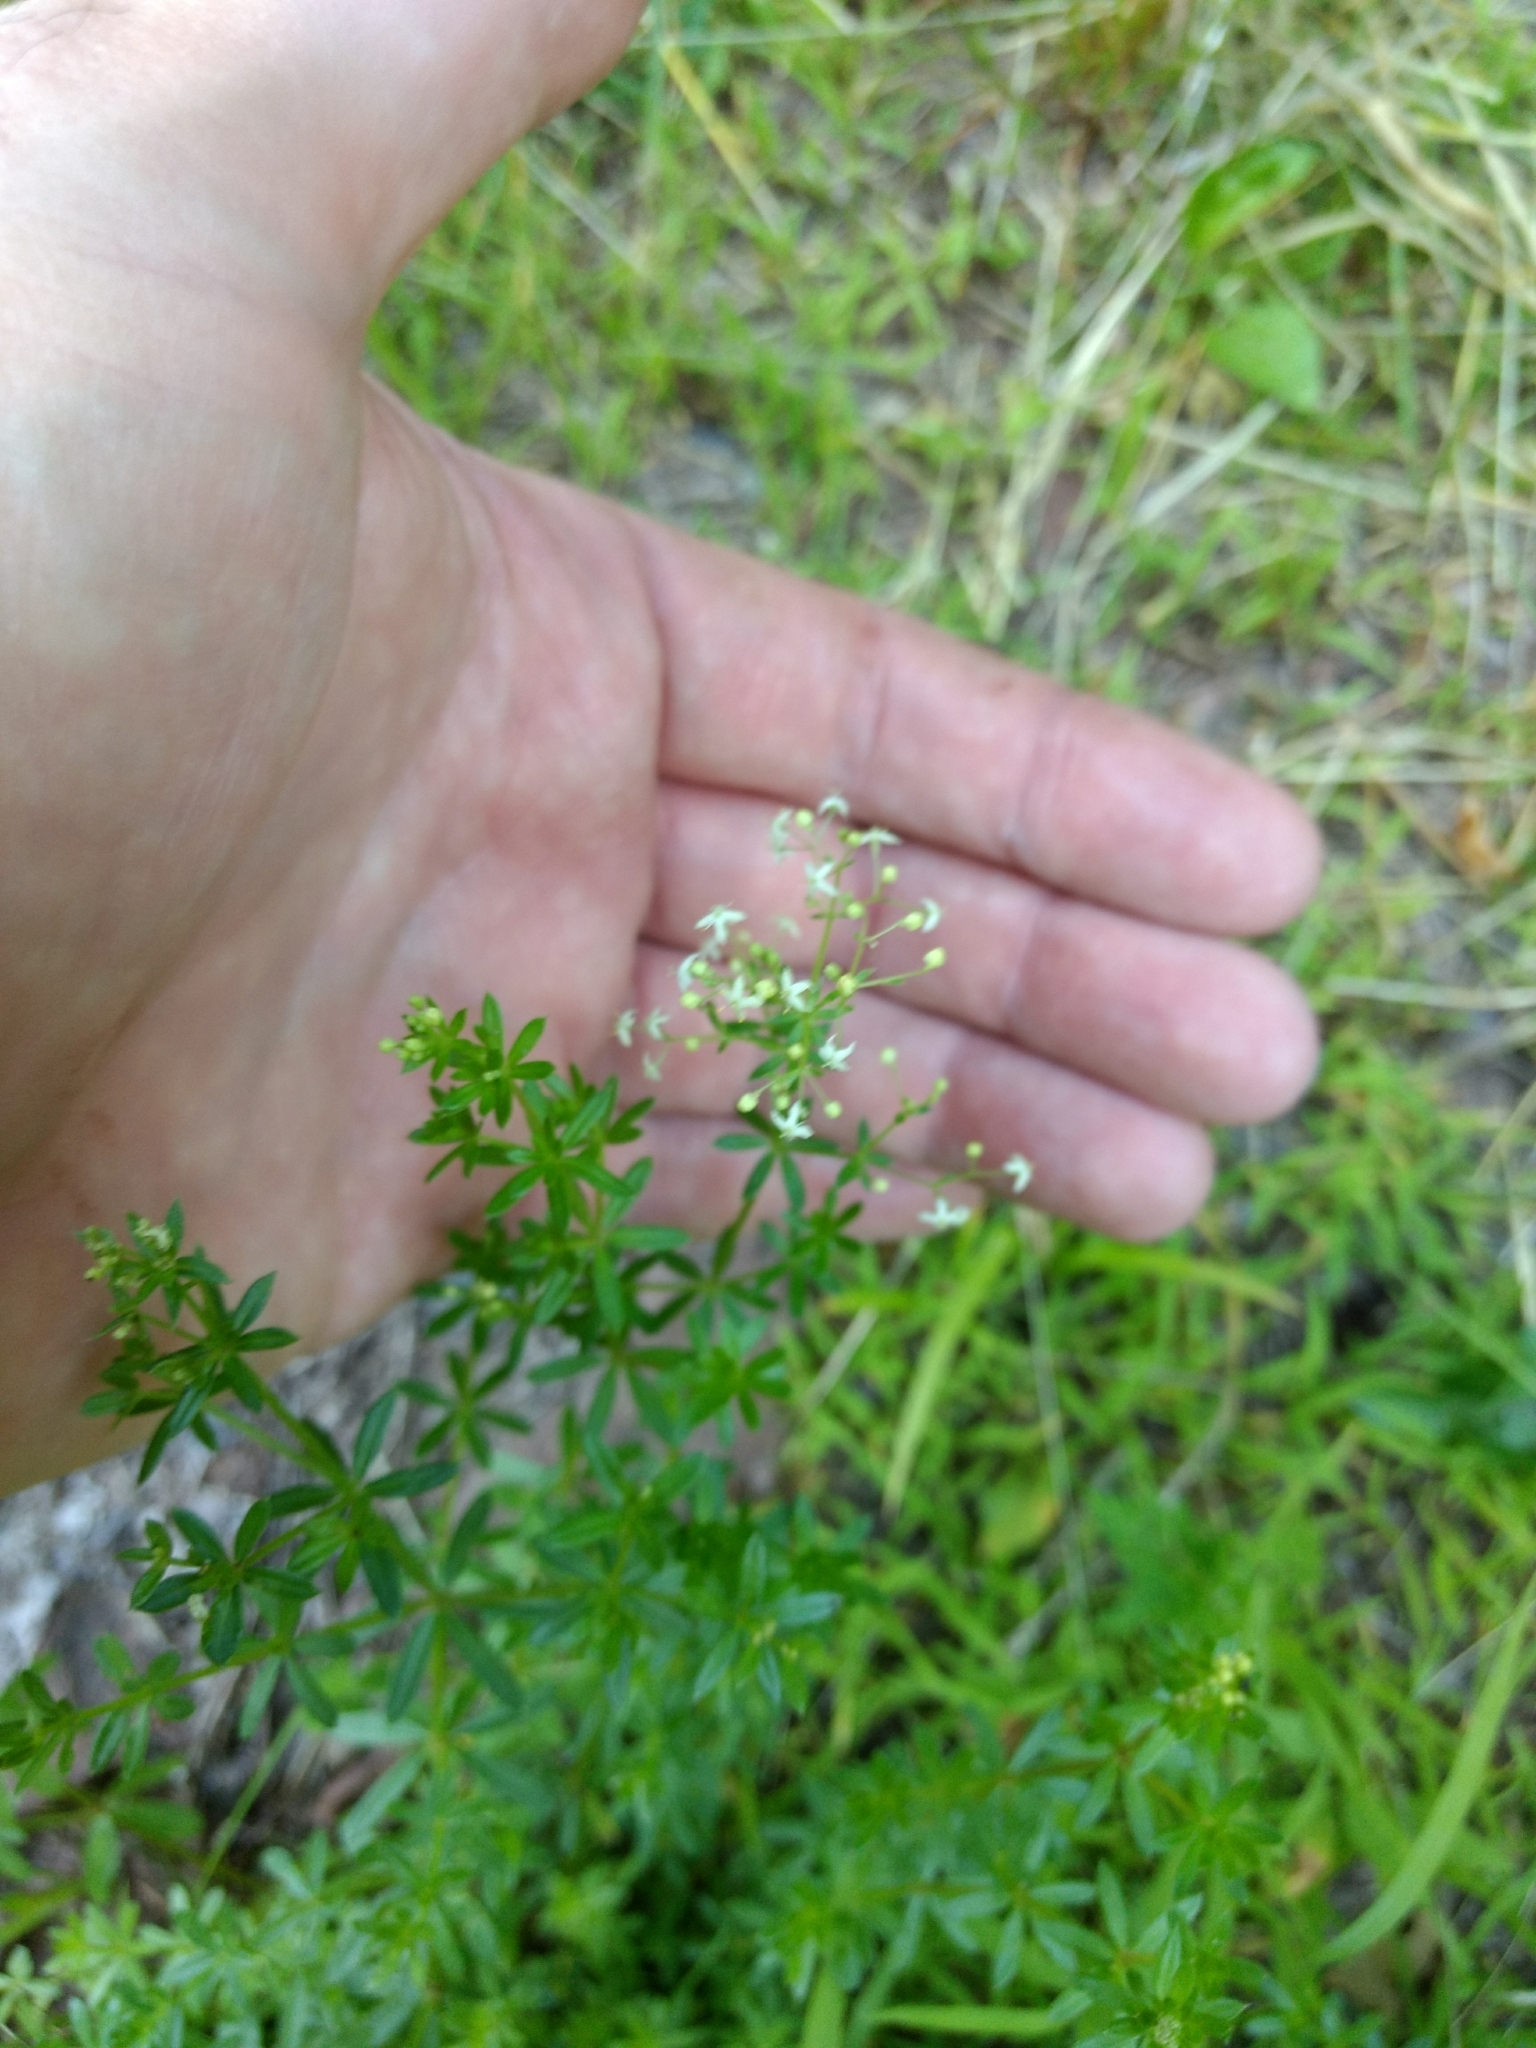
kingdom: Plantae
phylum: Tracheophyta
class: Magnoliopsida
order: Gentianales
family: Rubiaceae
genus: Galium
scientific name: Galium mollugo
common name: Hedge bedstraw
